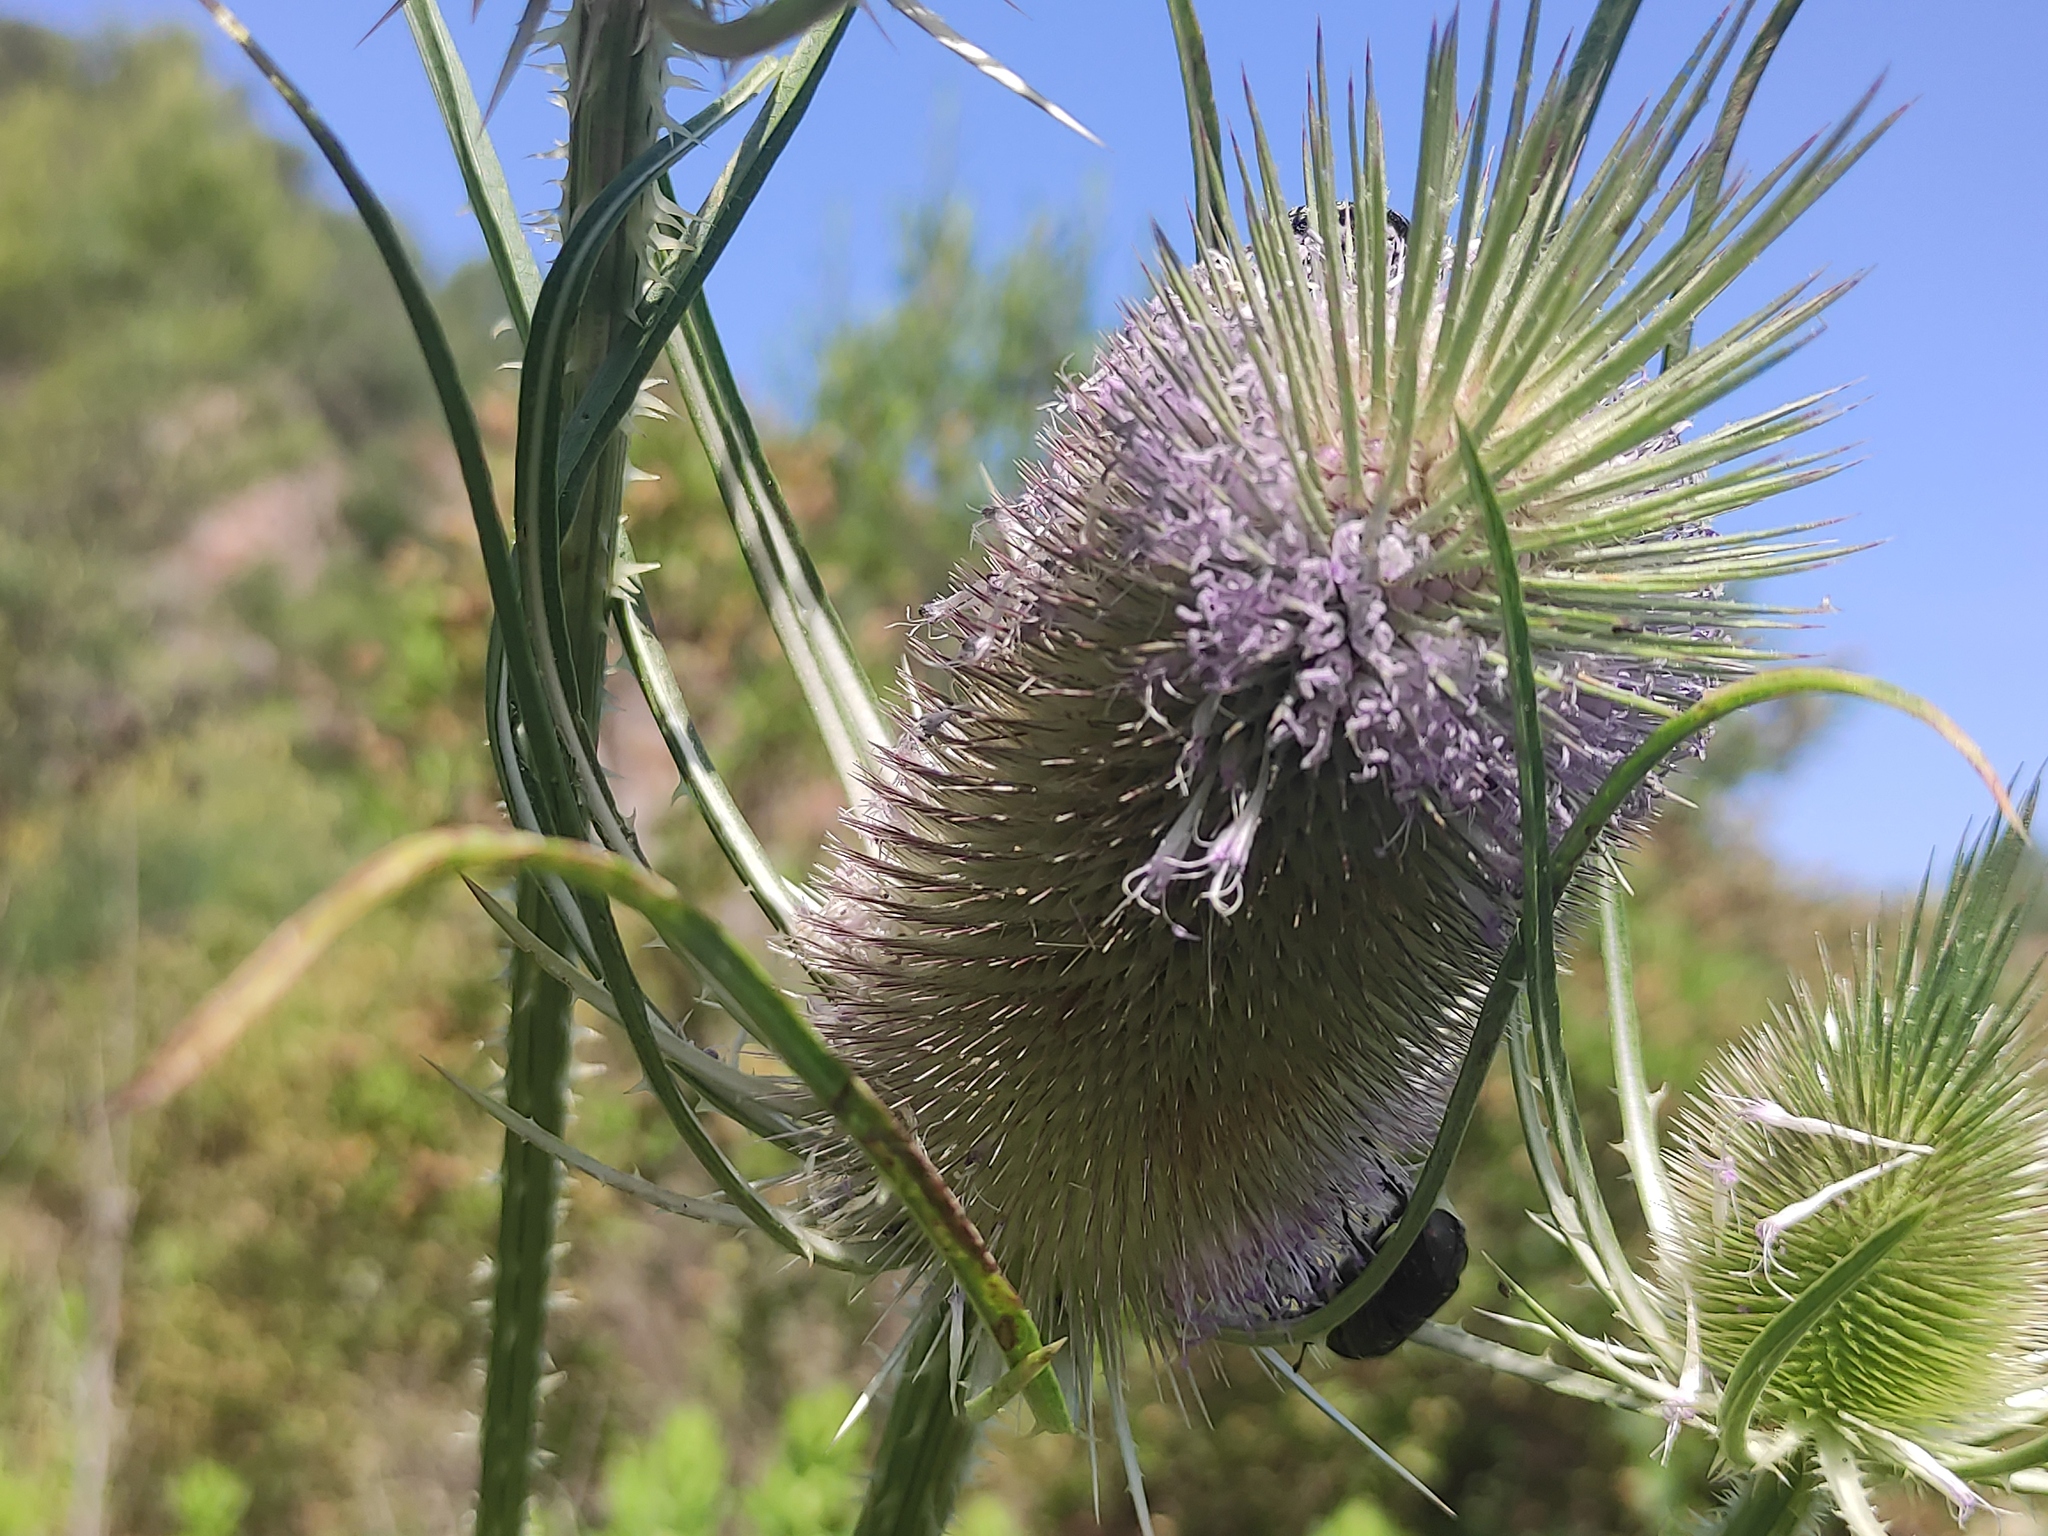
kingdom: Plantae
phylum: Tracheophyta
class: Magnoliopsida
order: Dipsacales
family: Caprifoliaceae
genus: Dipsacus
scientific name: Dipsacus fullonum
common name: Teasel
